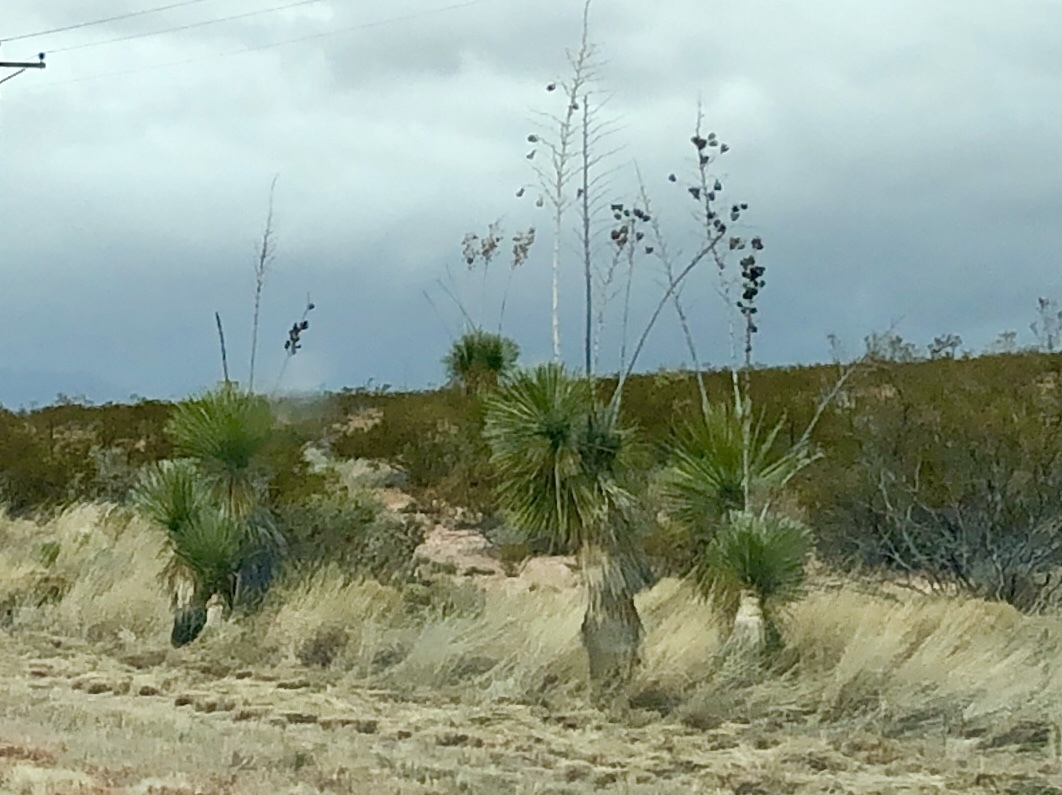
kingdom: Plantae
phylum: Tracheophyta
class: Liliopsida
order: Asparagales
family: Asparagaceae
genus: Yucca
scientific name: Yucca elata
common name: Palmella
